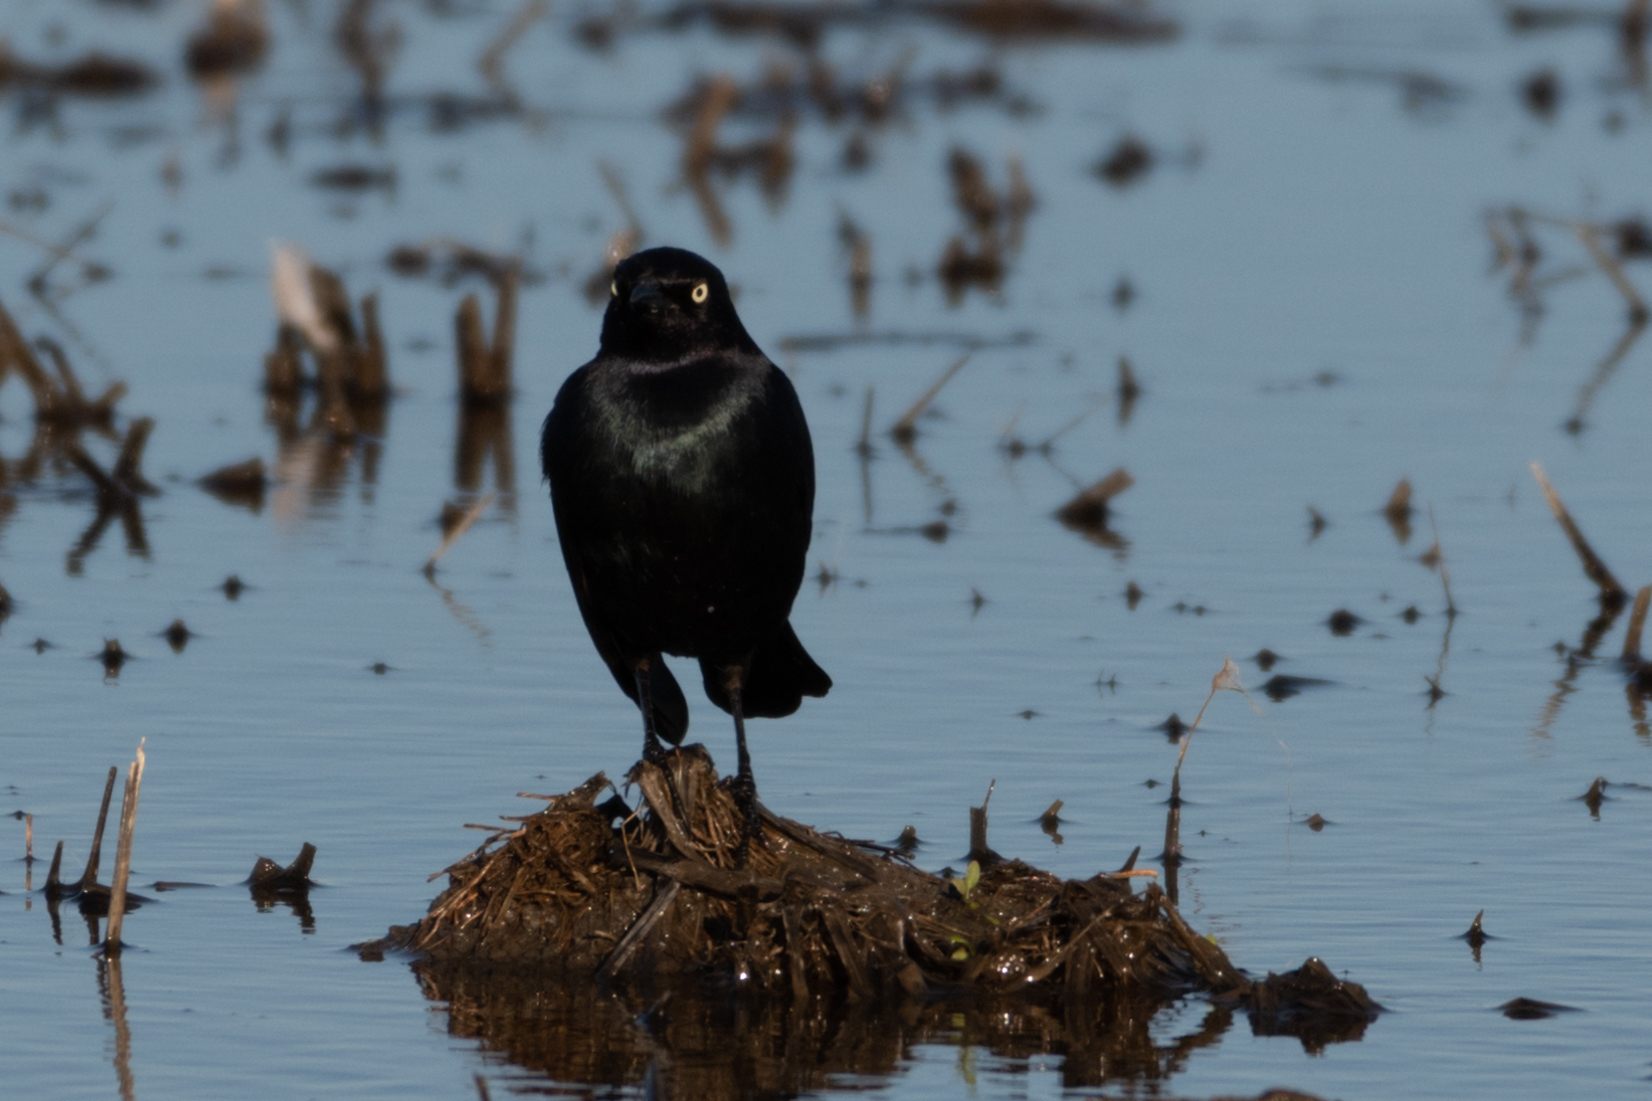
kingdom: Animalia
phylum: Chordata
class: Aves
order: Passeriformes
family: Icteridae
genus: Euphagus
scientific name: Euphagus cyanocephalus
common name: Brewer's blackbird
